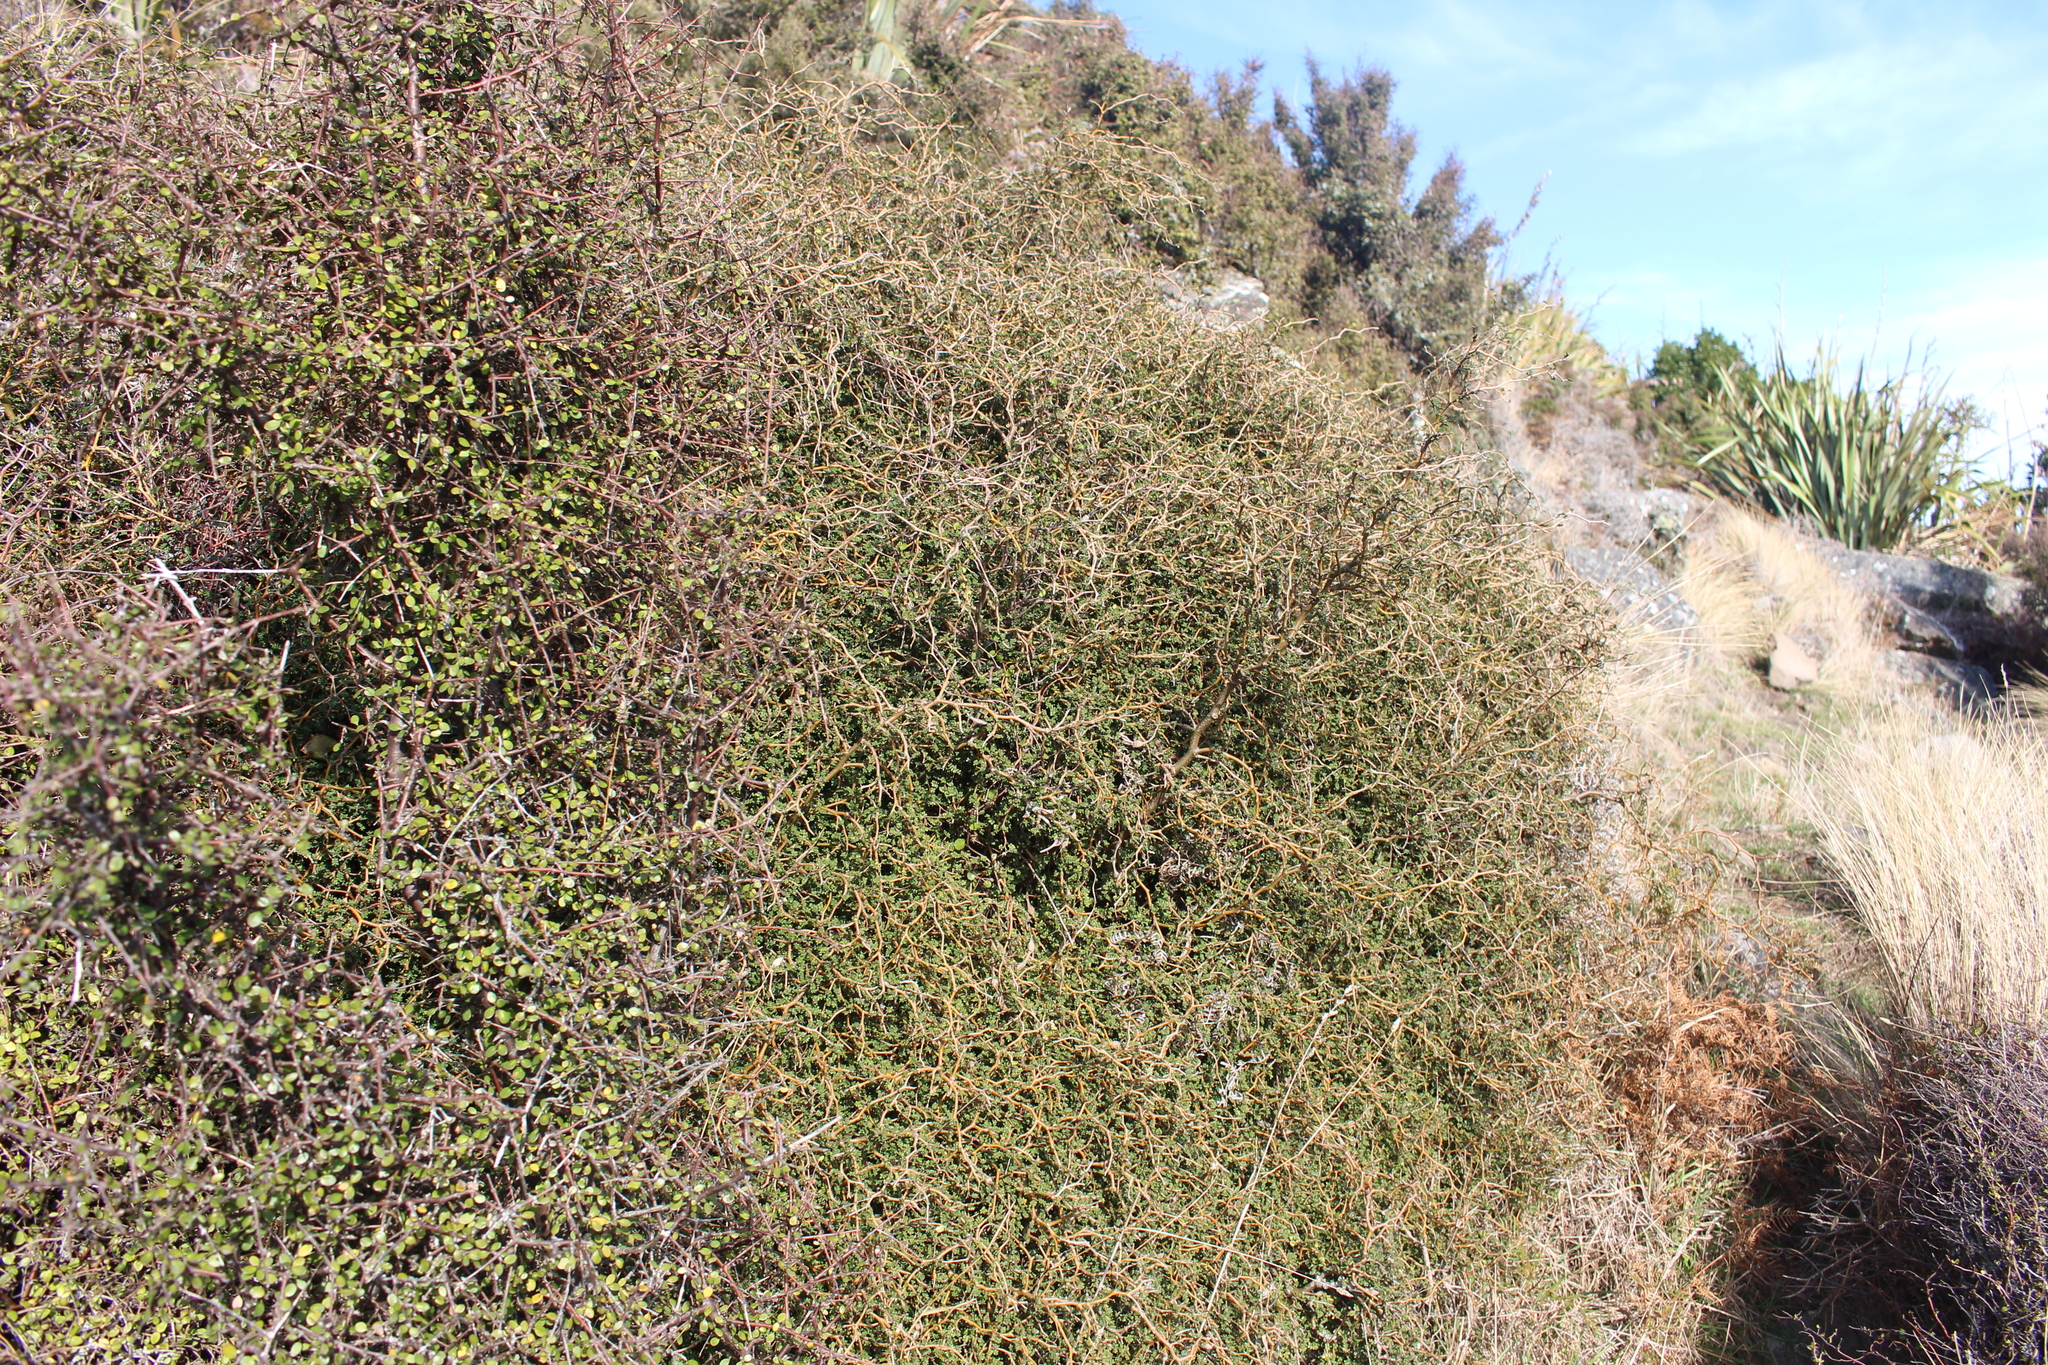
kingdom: Plantae
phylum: Tracheophyta
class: Magnoliopsida
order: Fabales
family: Fabaceae
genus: Sophora
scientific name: Sophora prostrata
